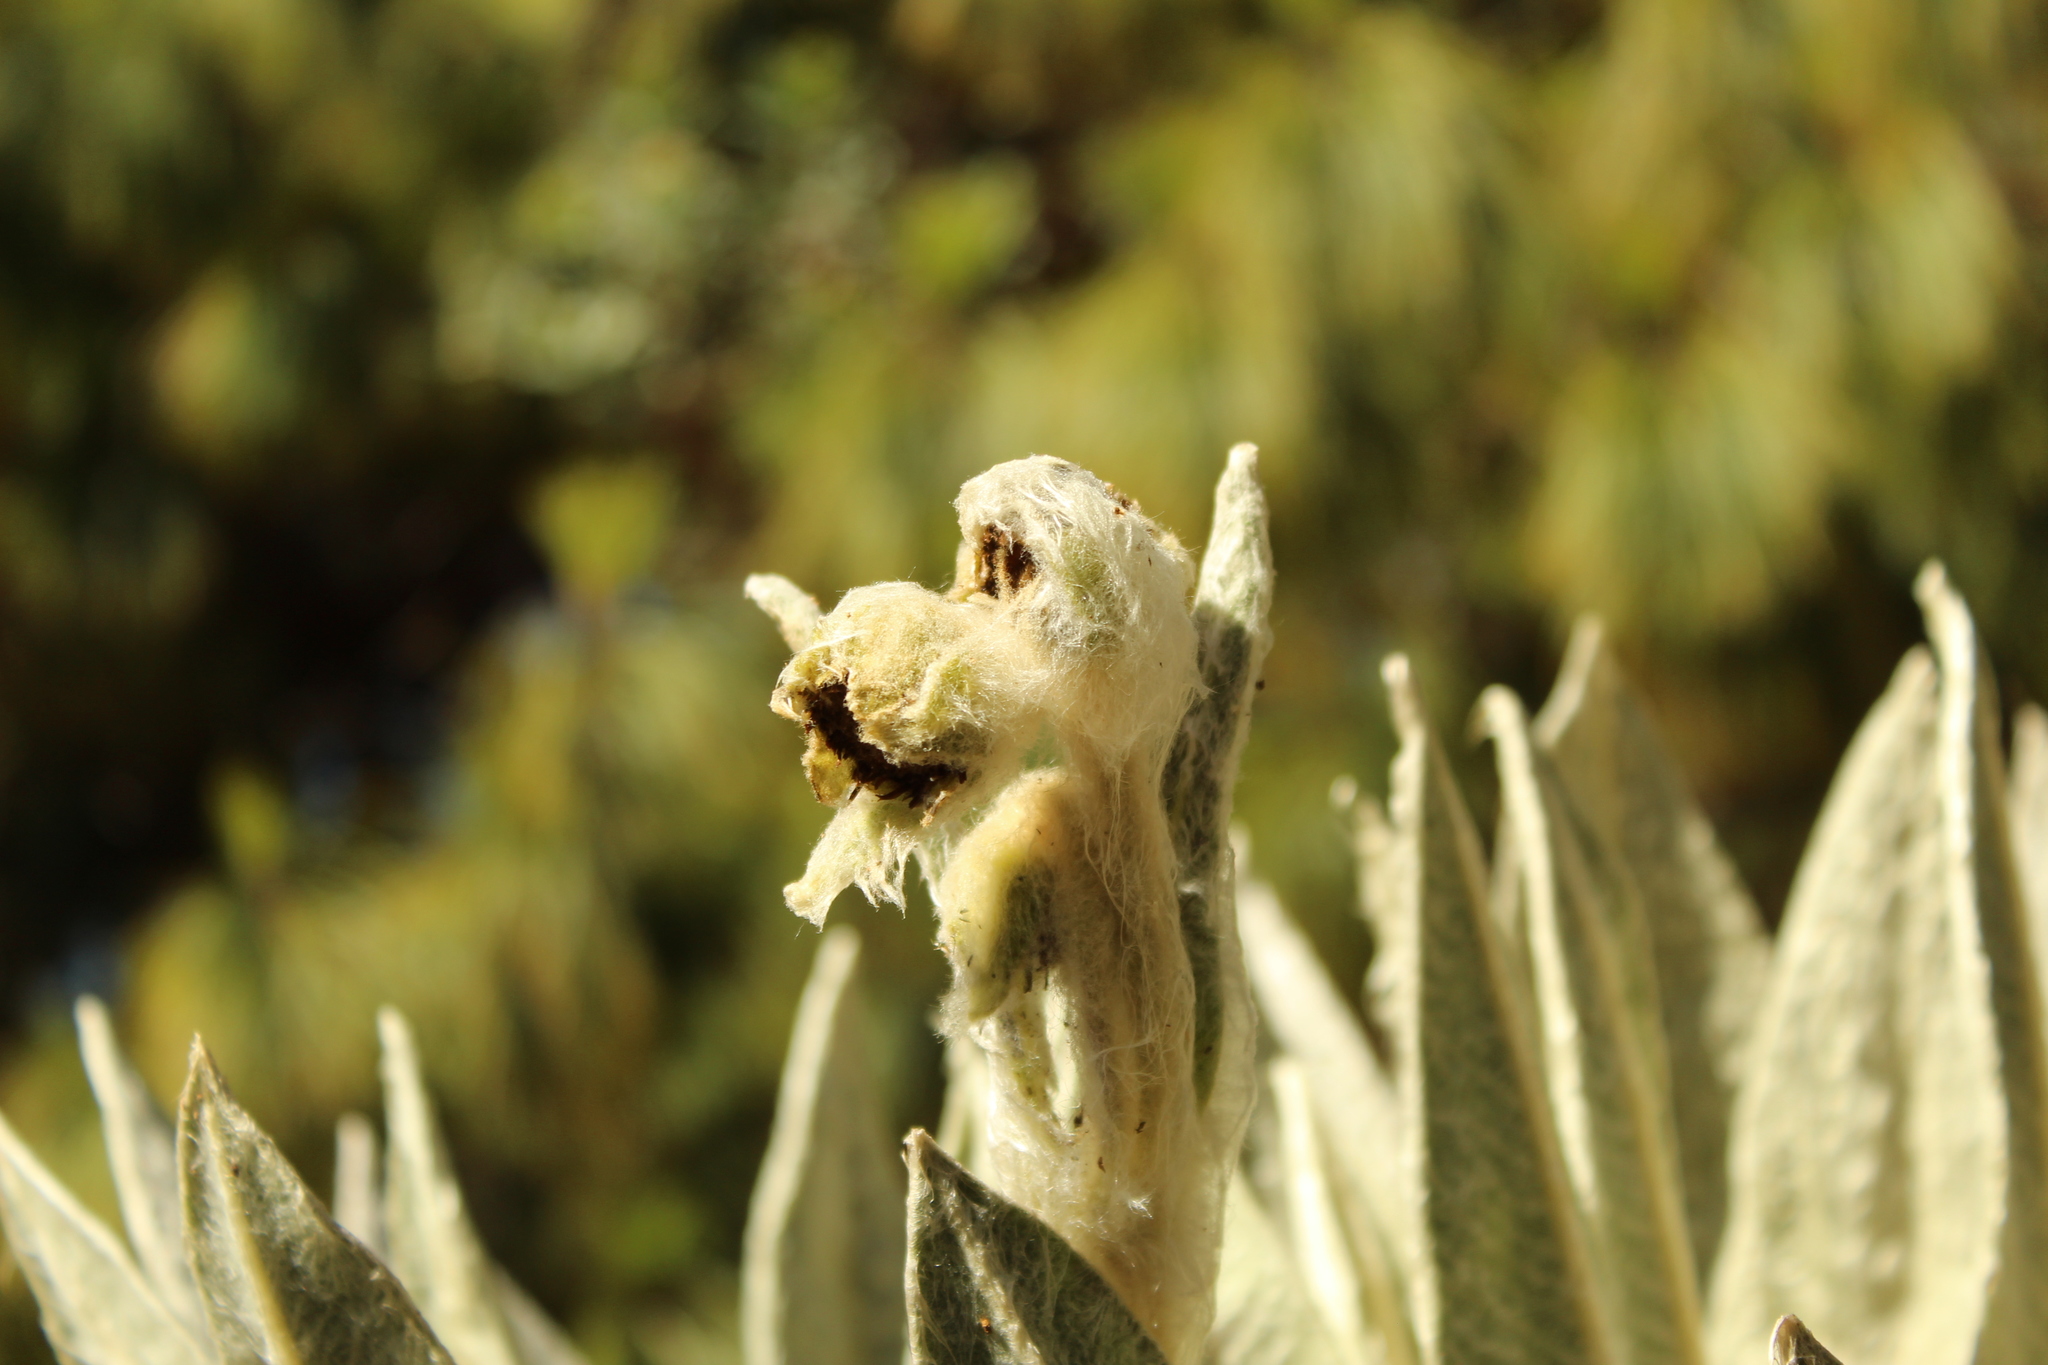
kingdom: Plantae
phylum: Tracheophyta
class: Magnoliopsida
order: Asterales
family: Asteraceae
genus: Espeletia
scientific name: Espeletia incana
